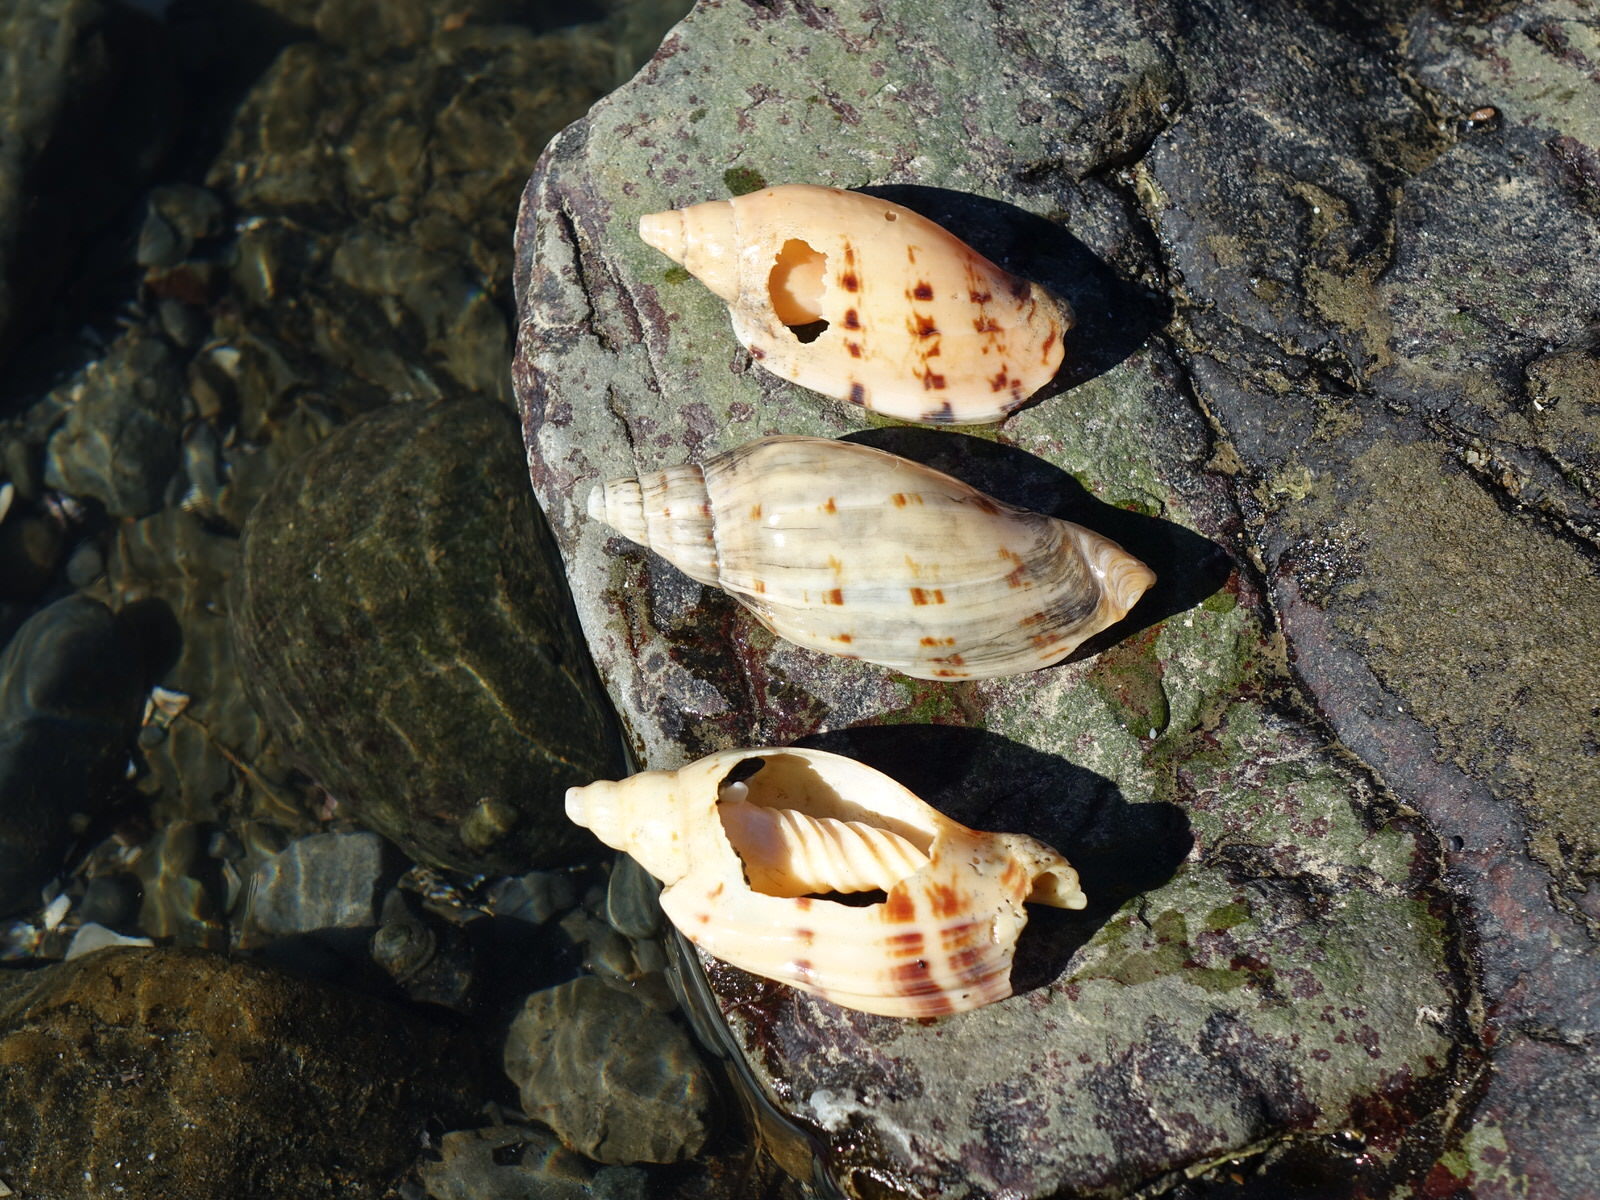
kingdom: Animalia
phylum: Mollusca
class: Gastropoda
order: Neogastropoda
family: Volutidae
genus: Alcithoe
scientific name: Alcithoe arabica
